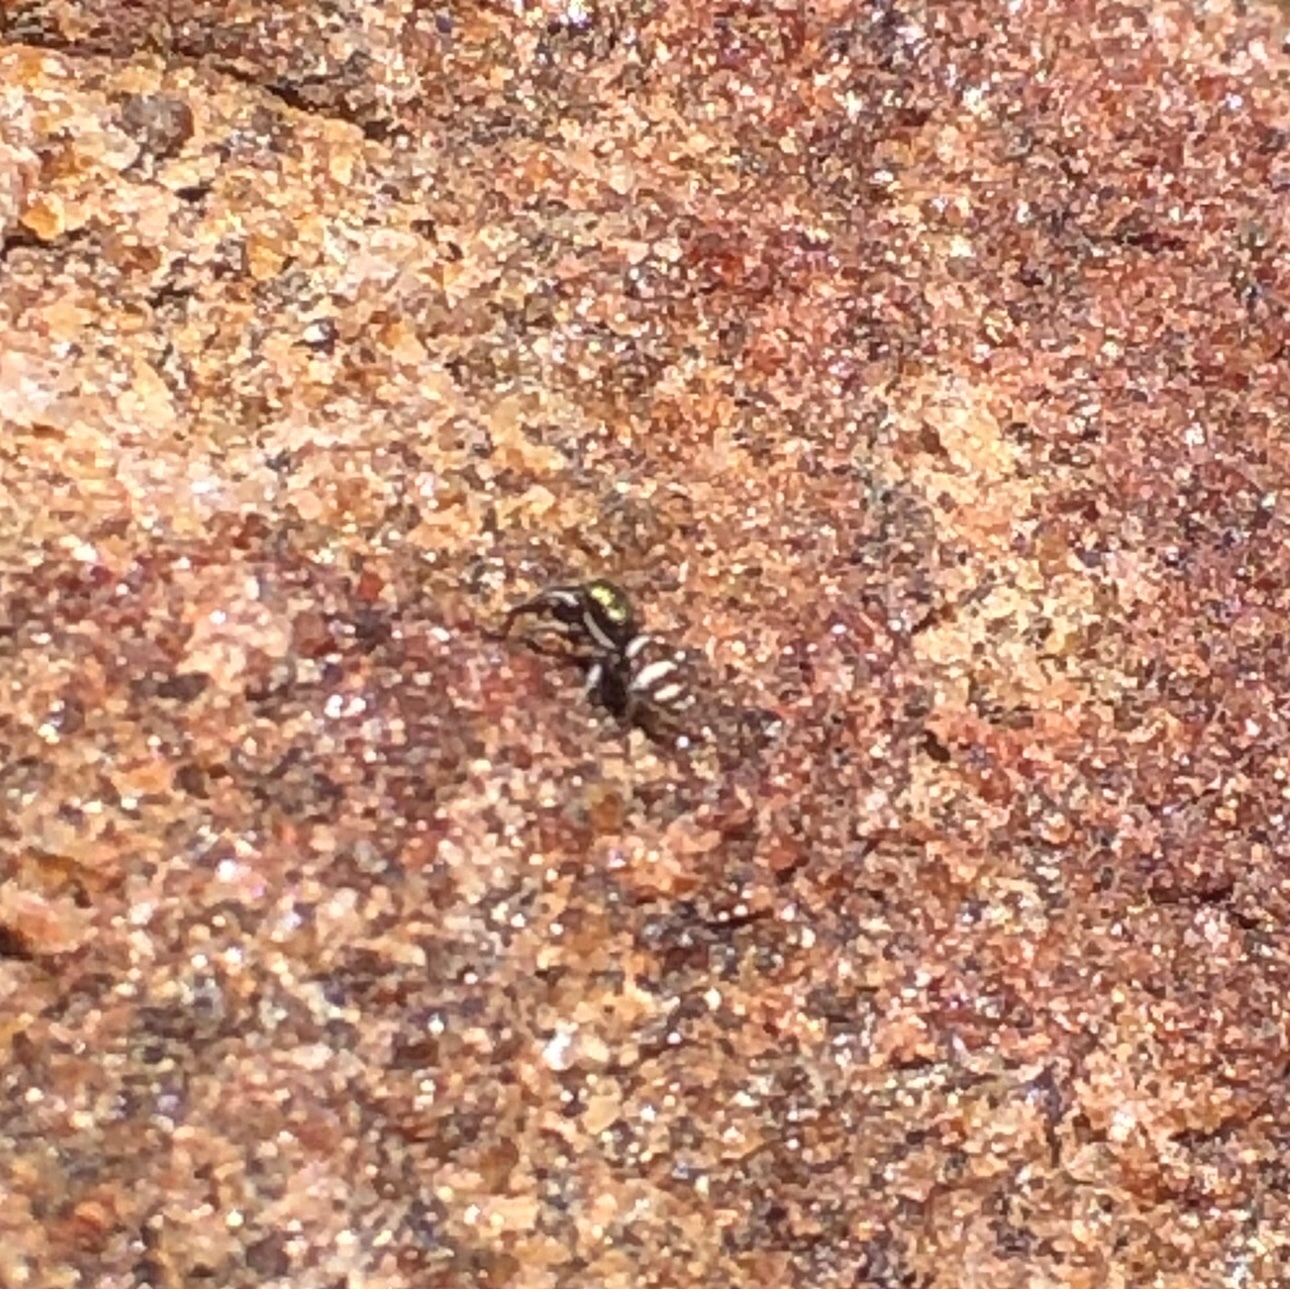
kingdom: Animalia
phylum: Arthropoda
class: Arachnida
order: Araneae
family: Salticidae
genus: Salticus
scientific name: Salticus palpalis
